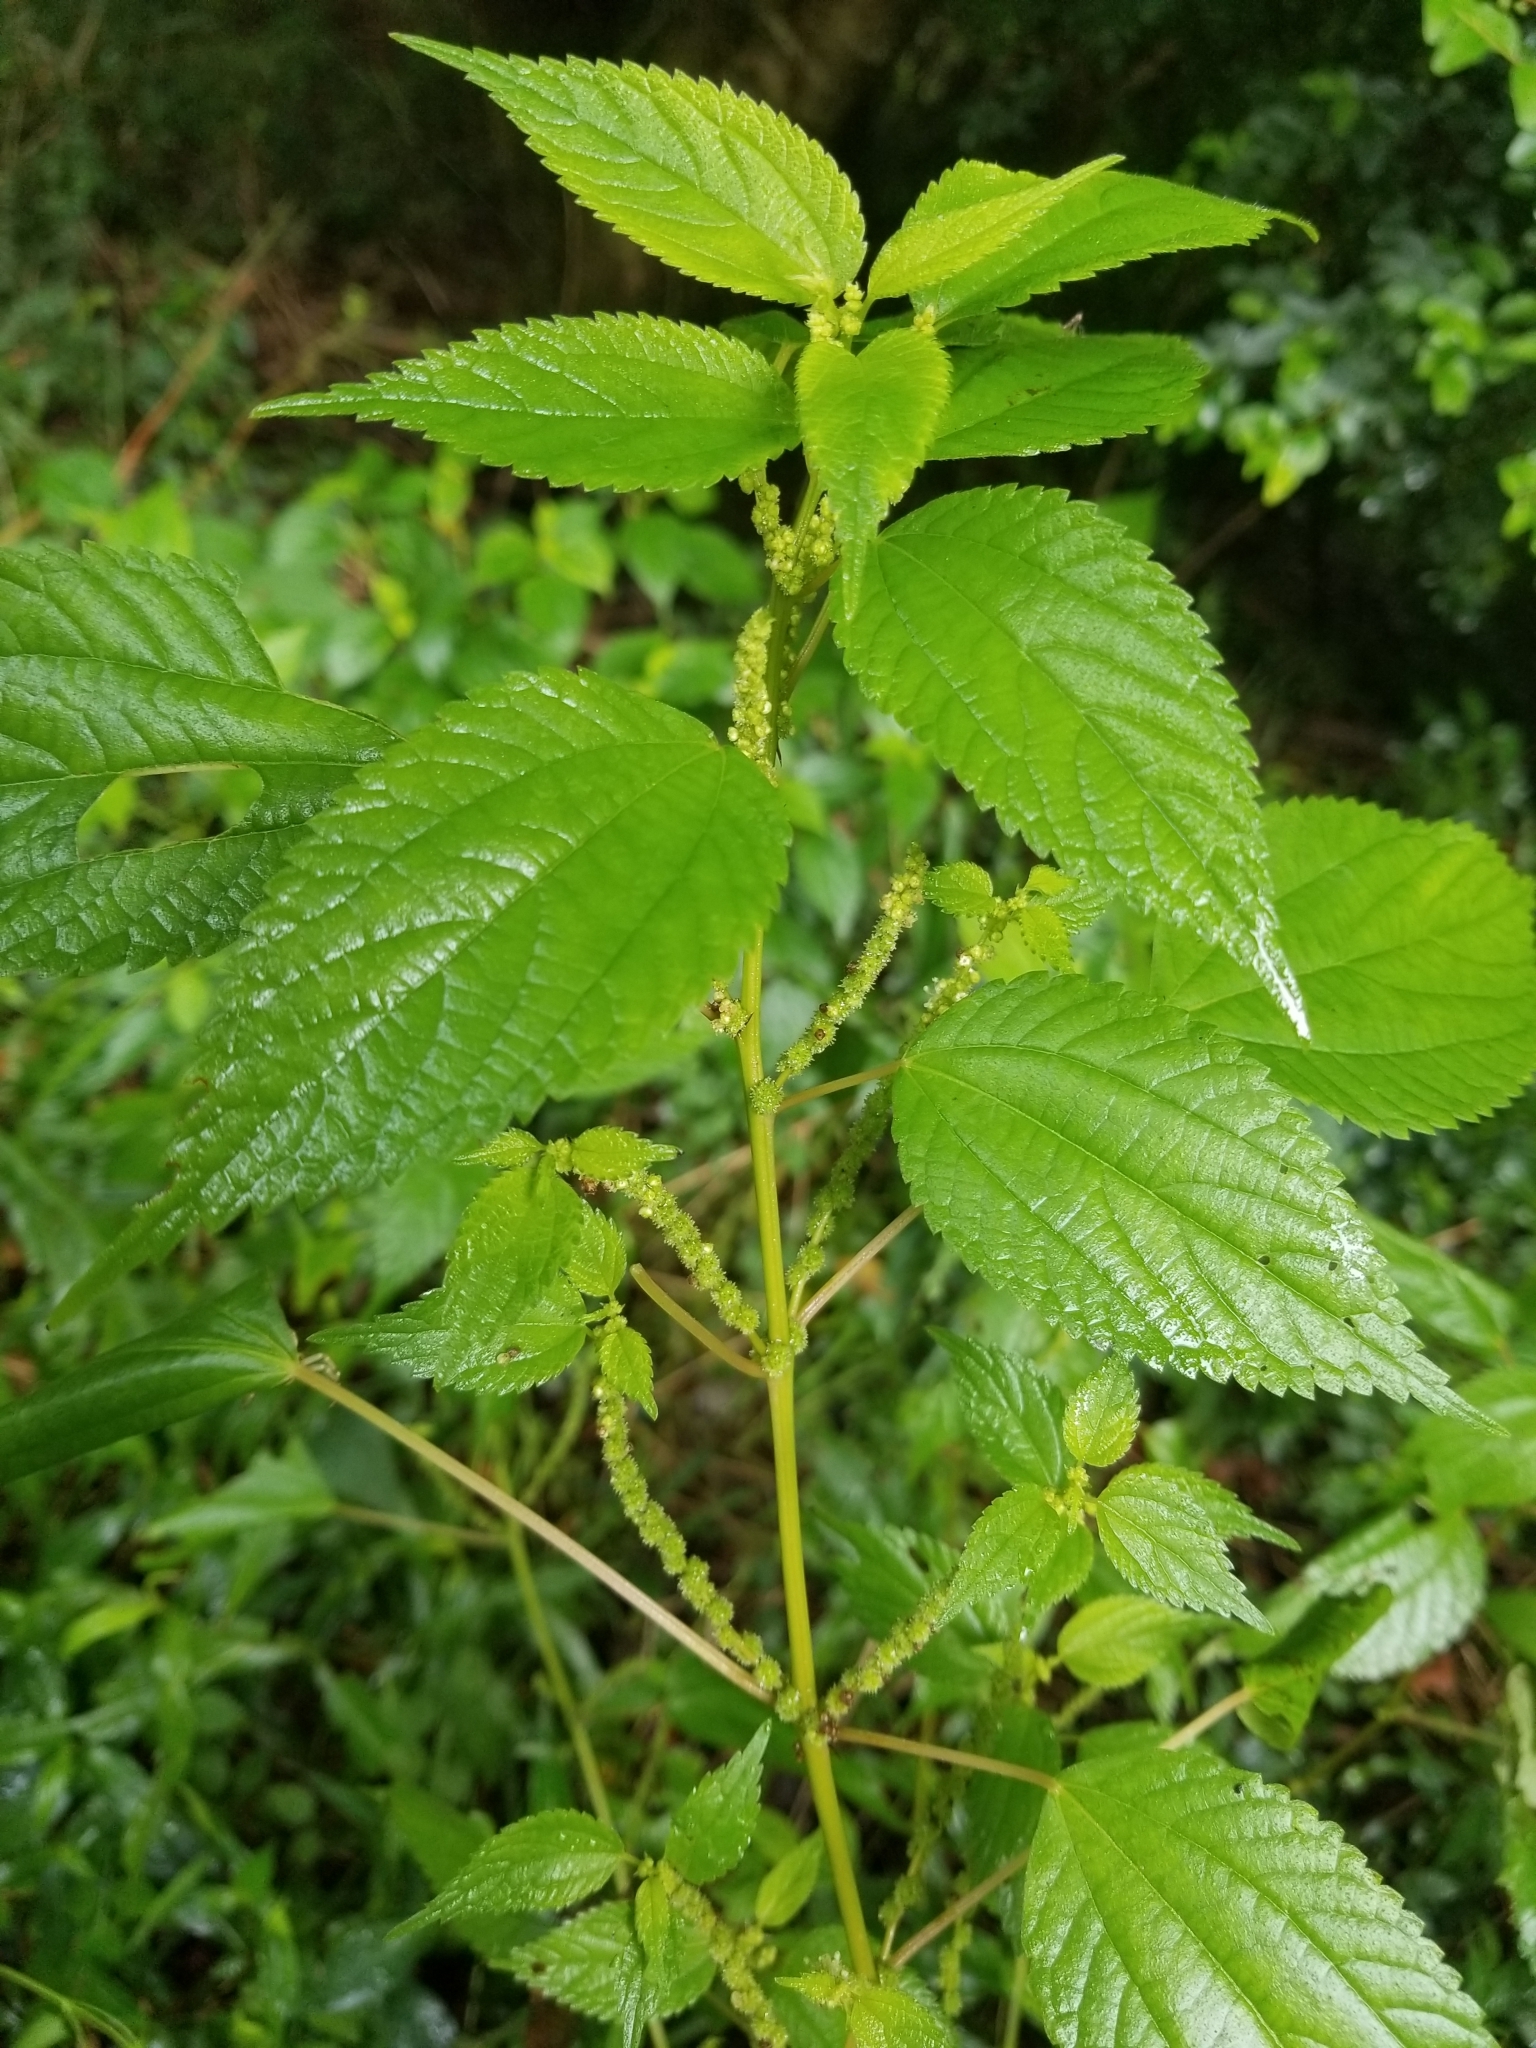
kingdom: Plantae
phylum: Tracheophyta
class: Magnoliopsida
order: Rosales
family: Urticaceae
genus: Boehmeria
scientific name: Boehmeria cylindrica
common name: Bog-hemp
